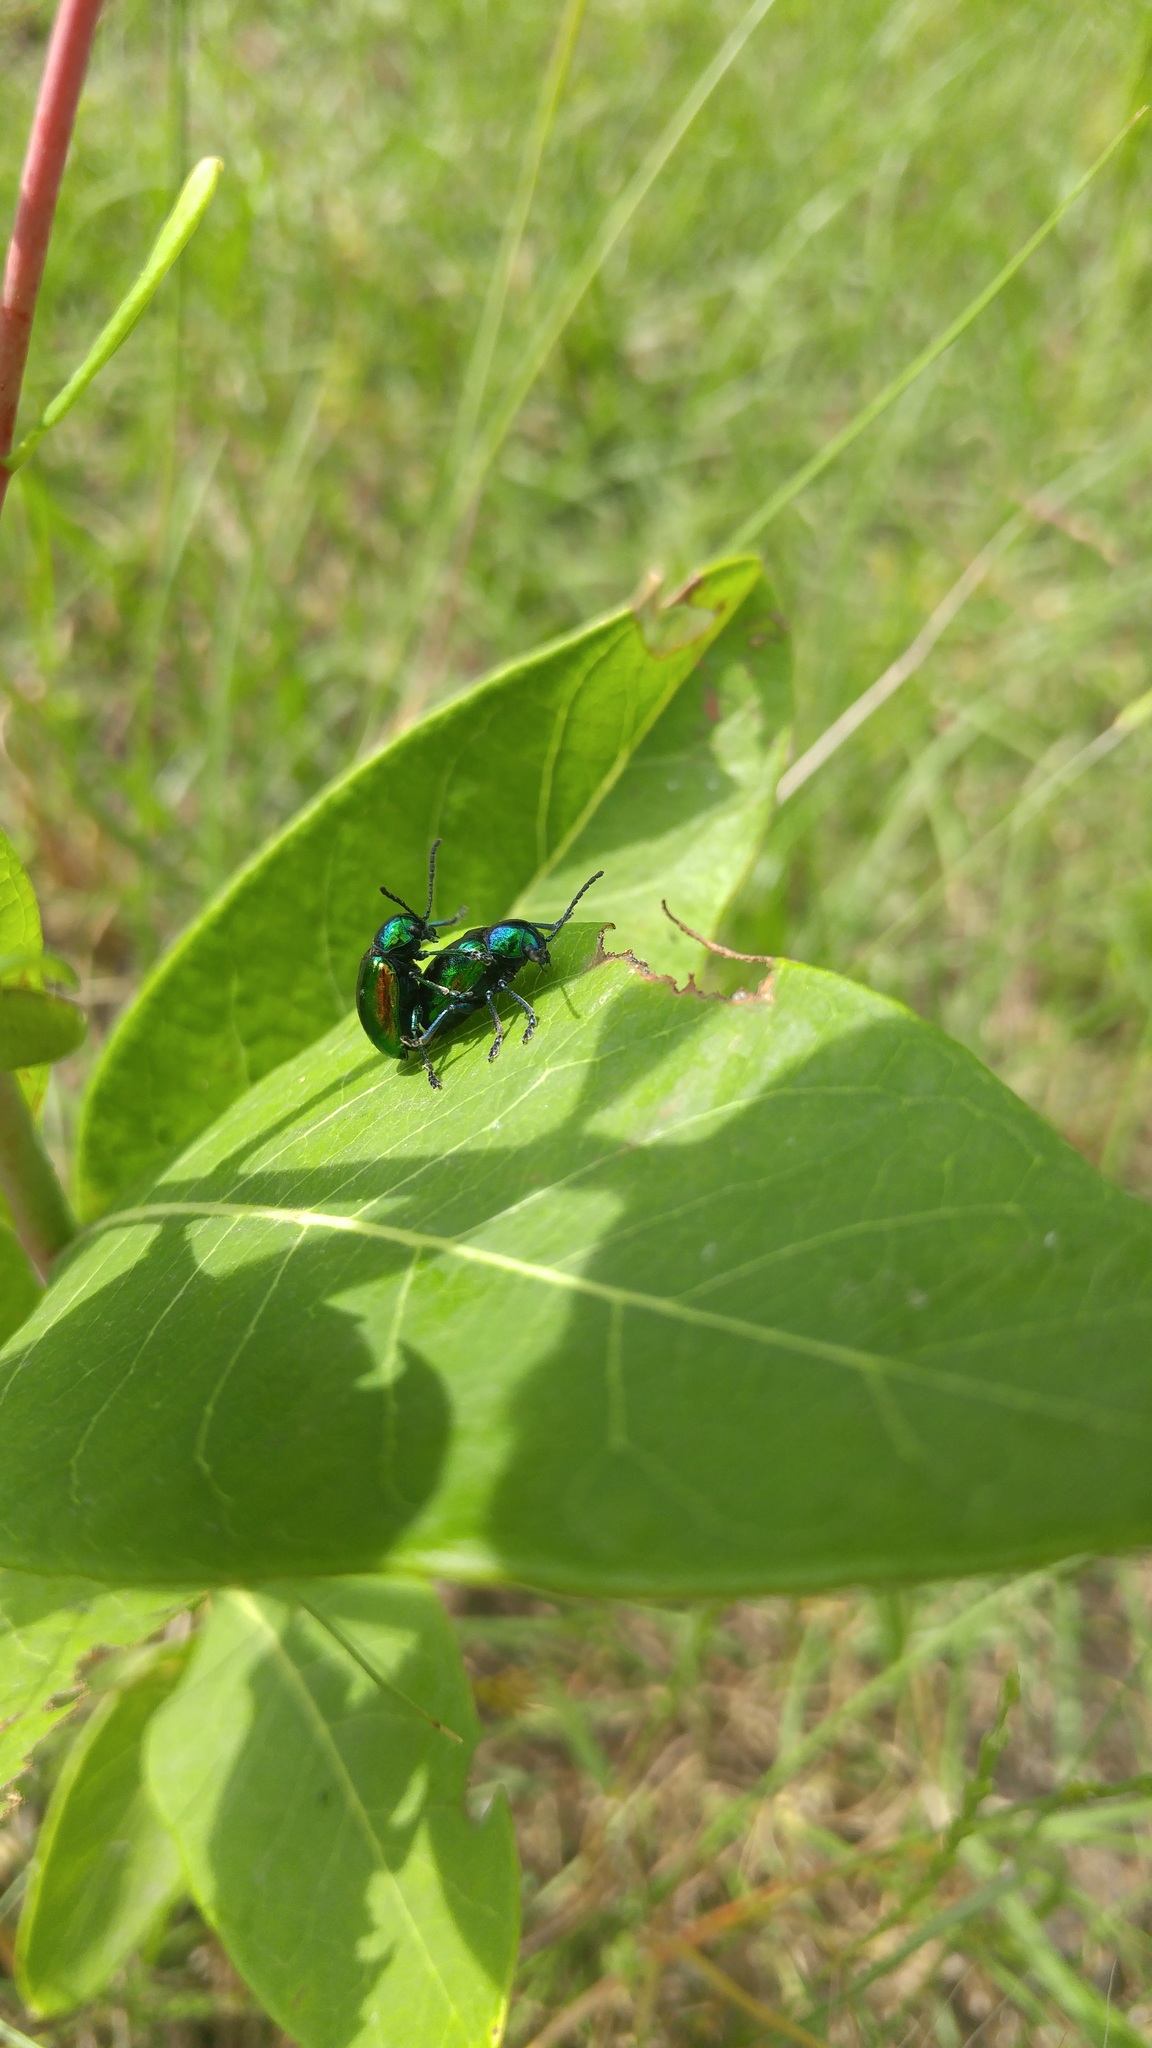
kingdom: Animalia
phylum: Arthropoda
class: Insecta
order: Coleoptera
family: Chrysomelidae
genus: Chrysochus
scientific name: Chrysochus auratus
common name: Dogbane leaf beetle
